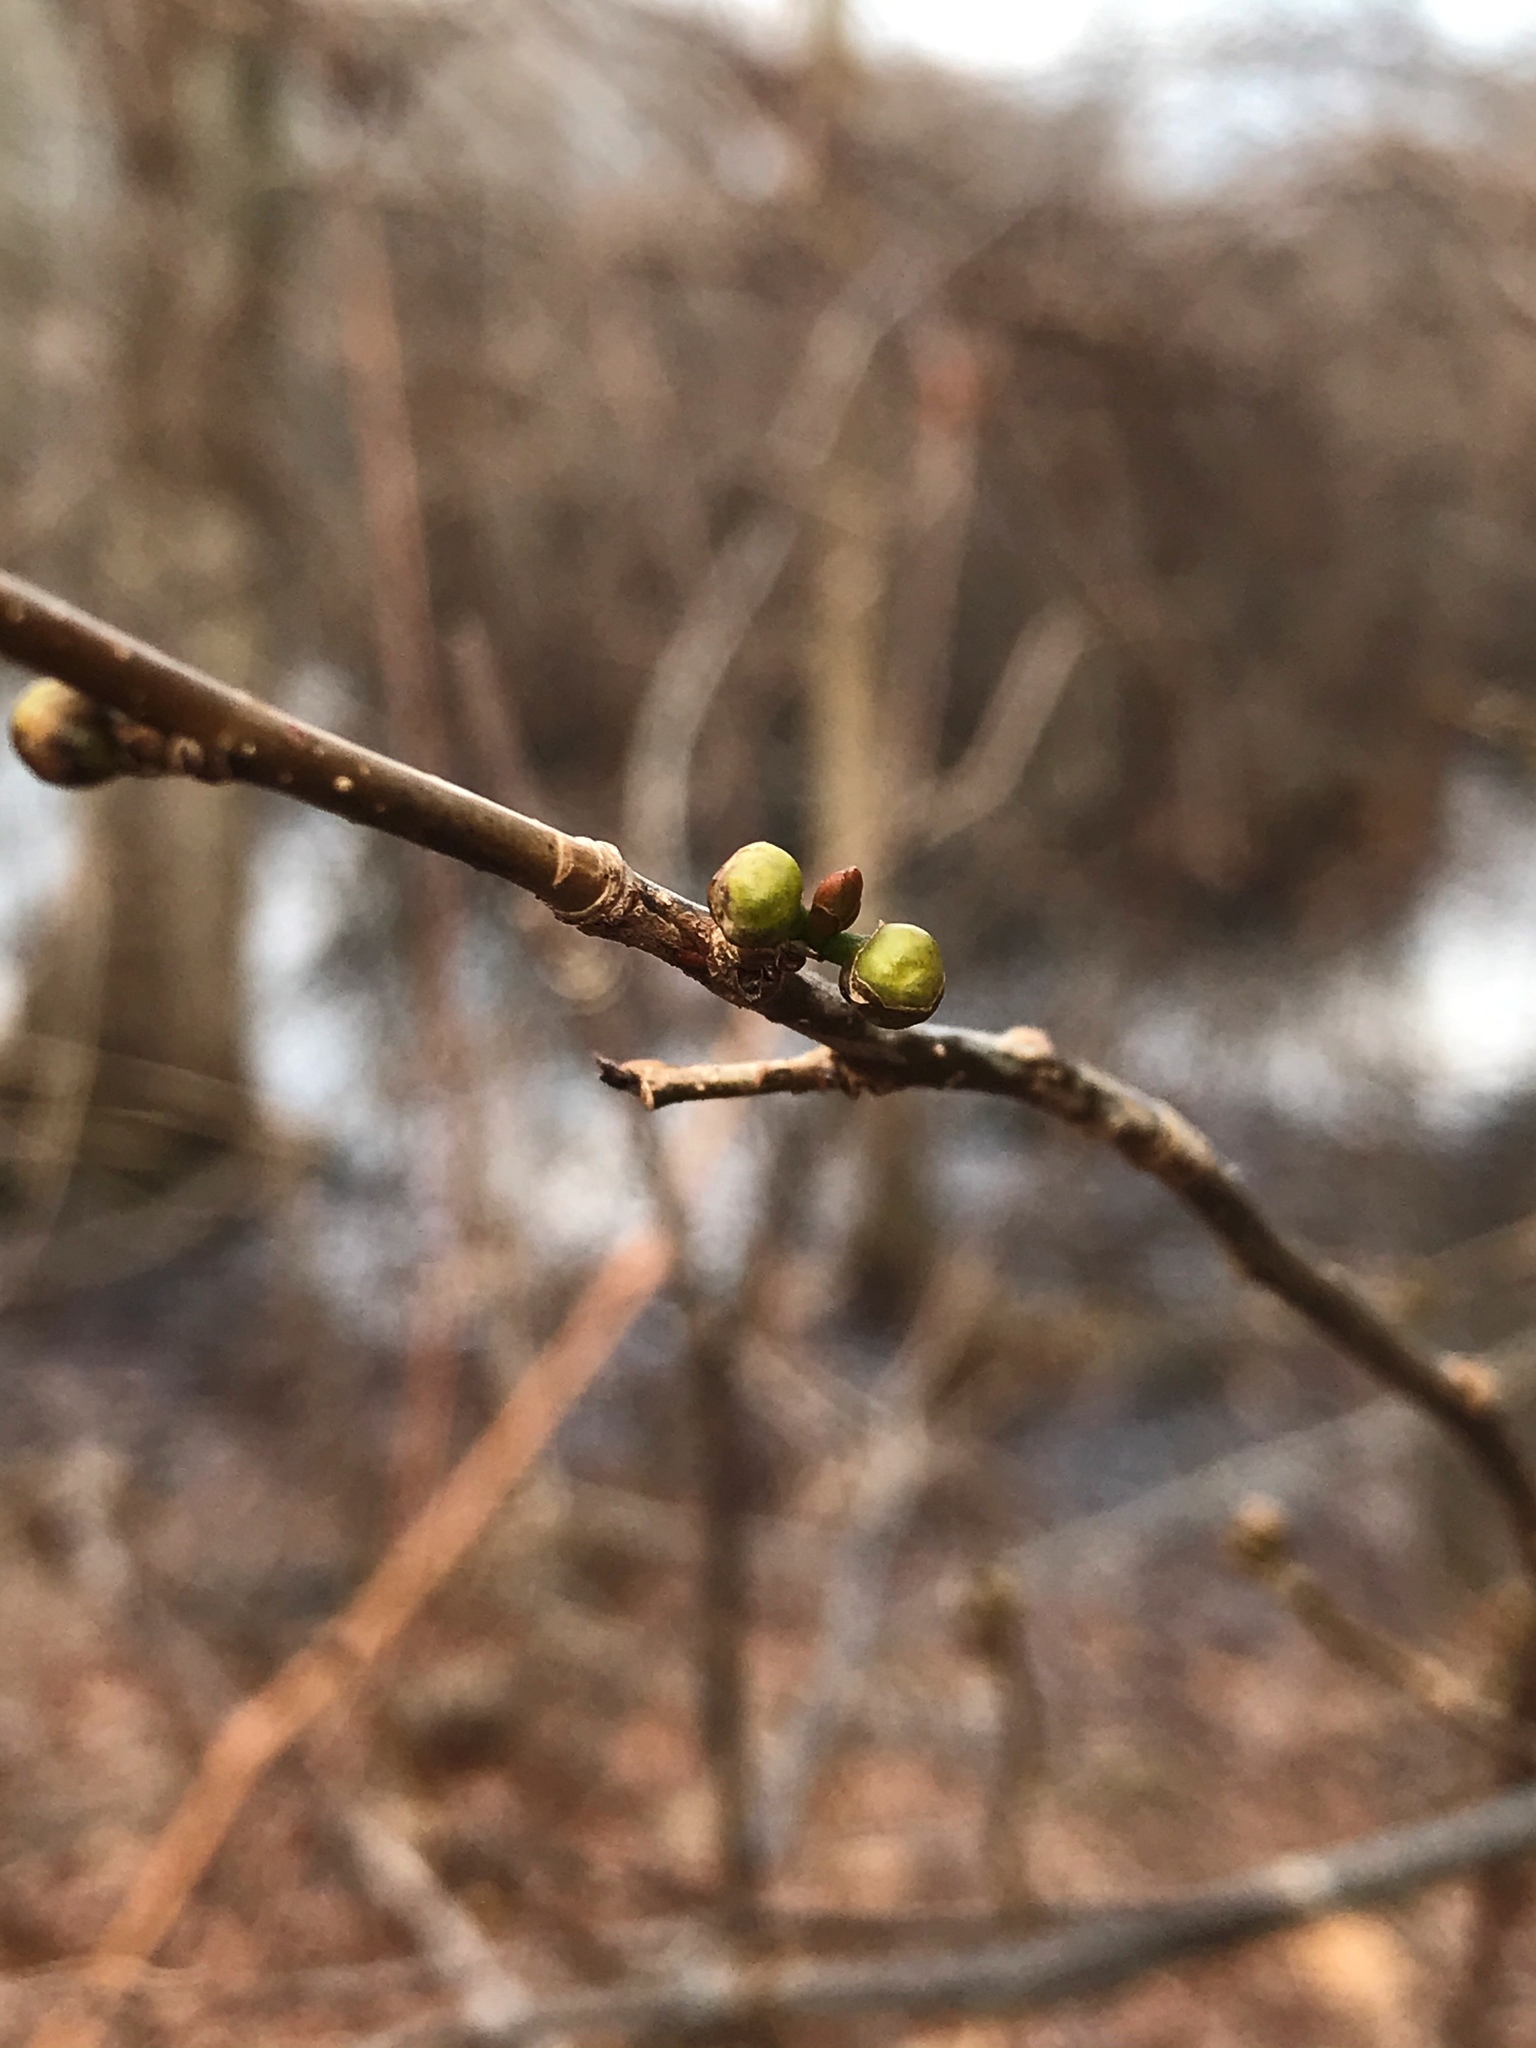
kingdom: Plantae
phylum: Tracheophyta
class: Magnoliopsida
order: Laurales
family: Lauraceae
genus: Lindera
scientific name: Lindera benzoin
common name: Spicebush
